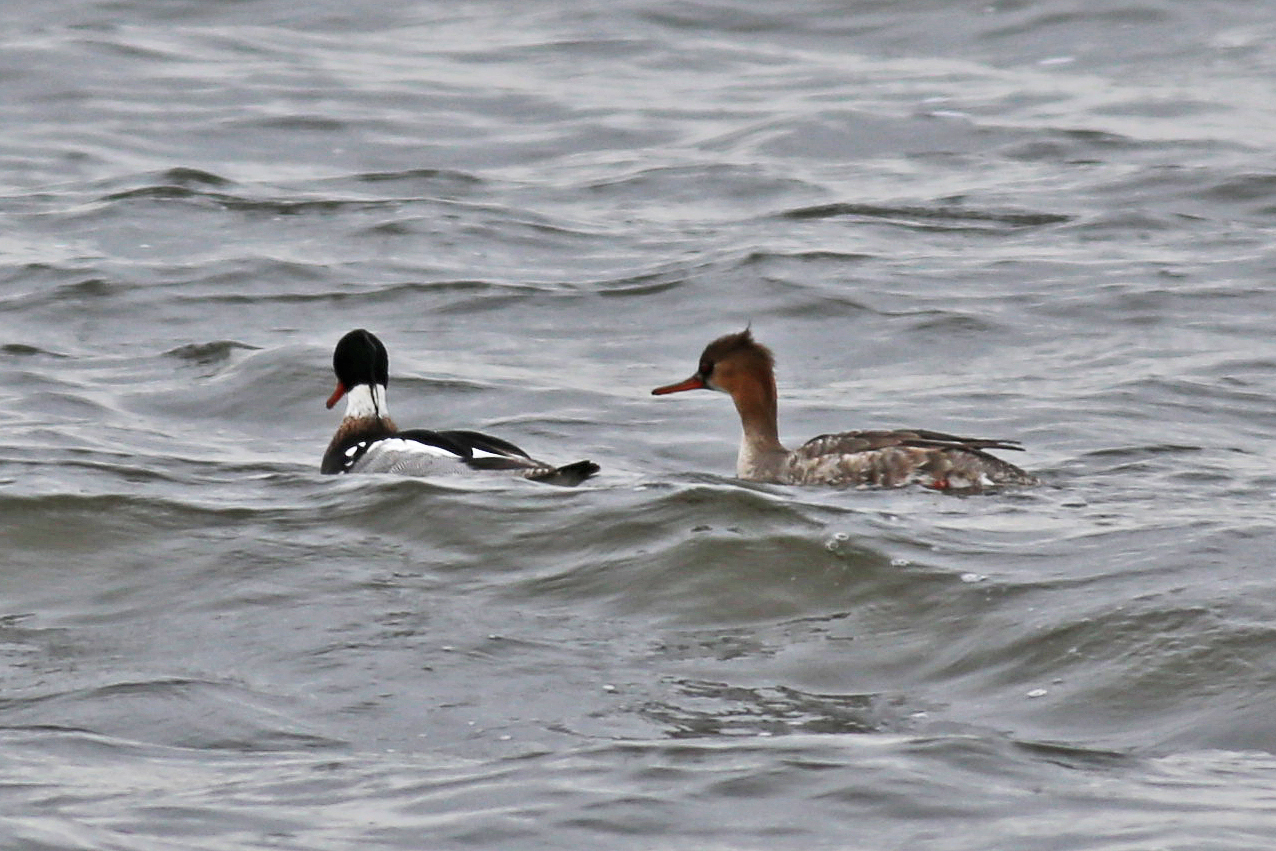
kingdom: Animalia
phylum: Chordata
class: Aves
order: Anseriformes
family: Anatidae
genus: Mergus
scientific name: Mergus serrator
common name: Red-breasted merganser
